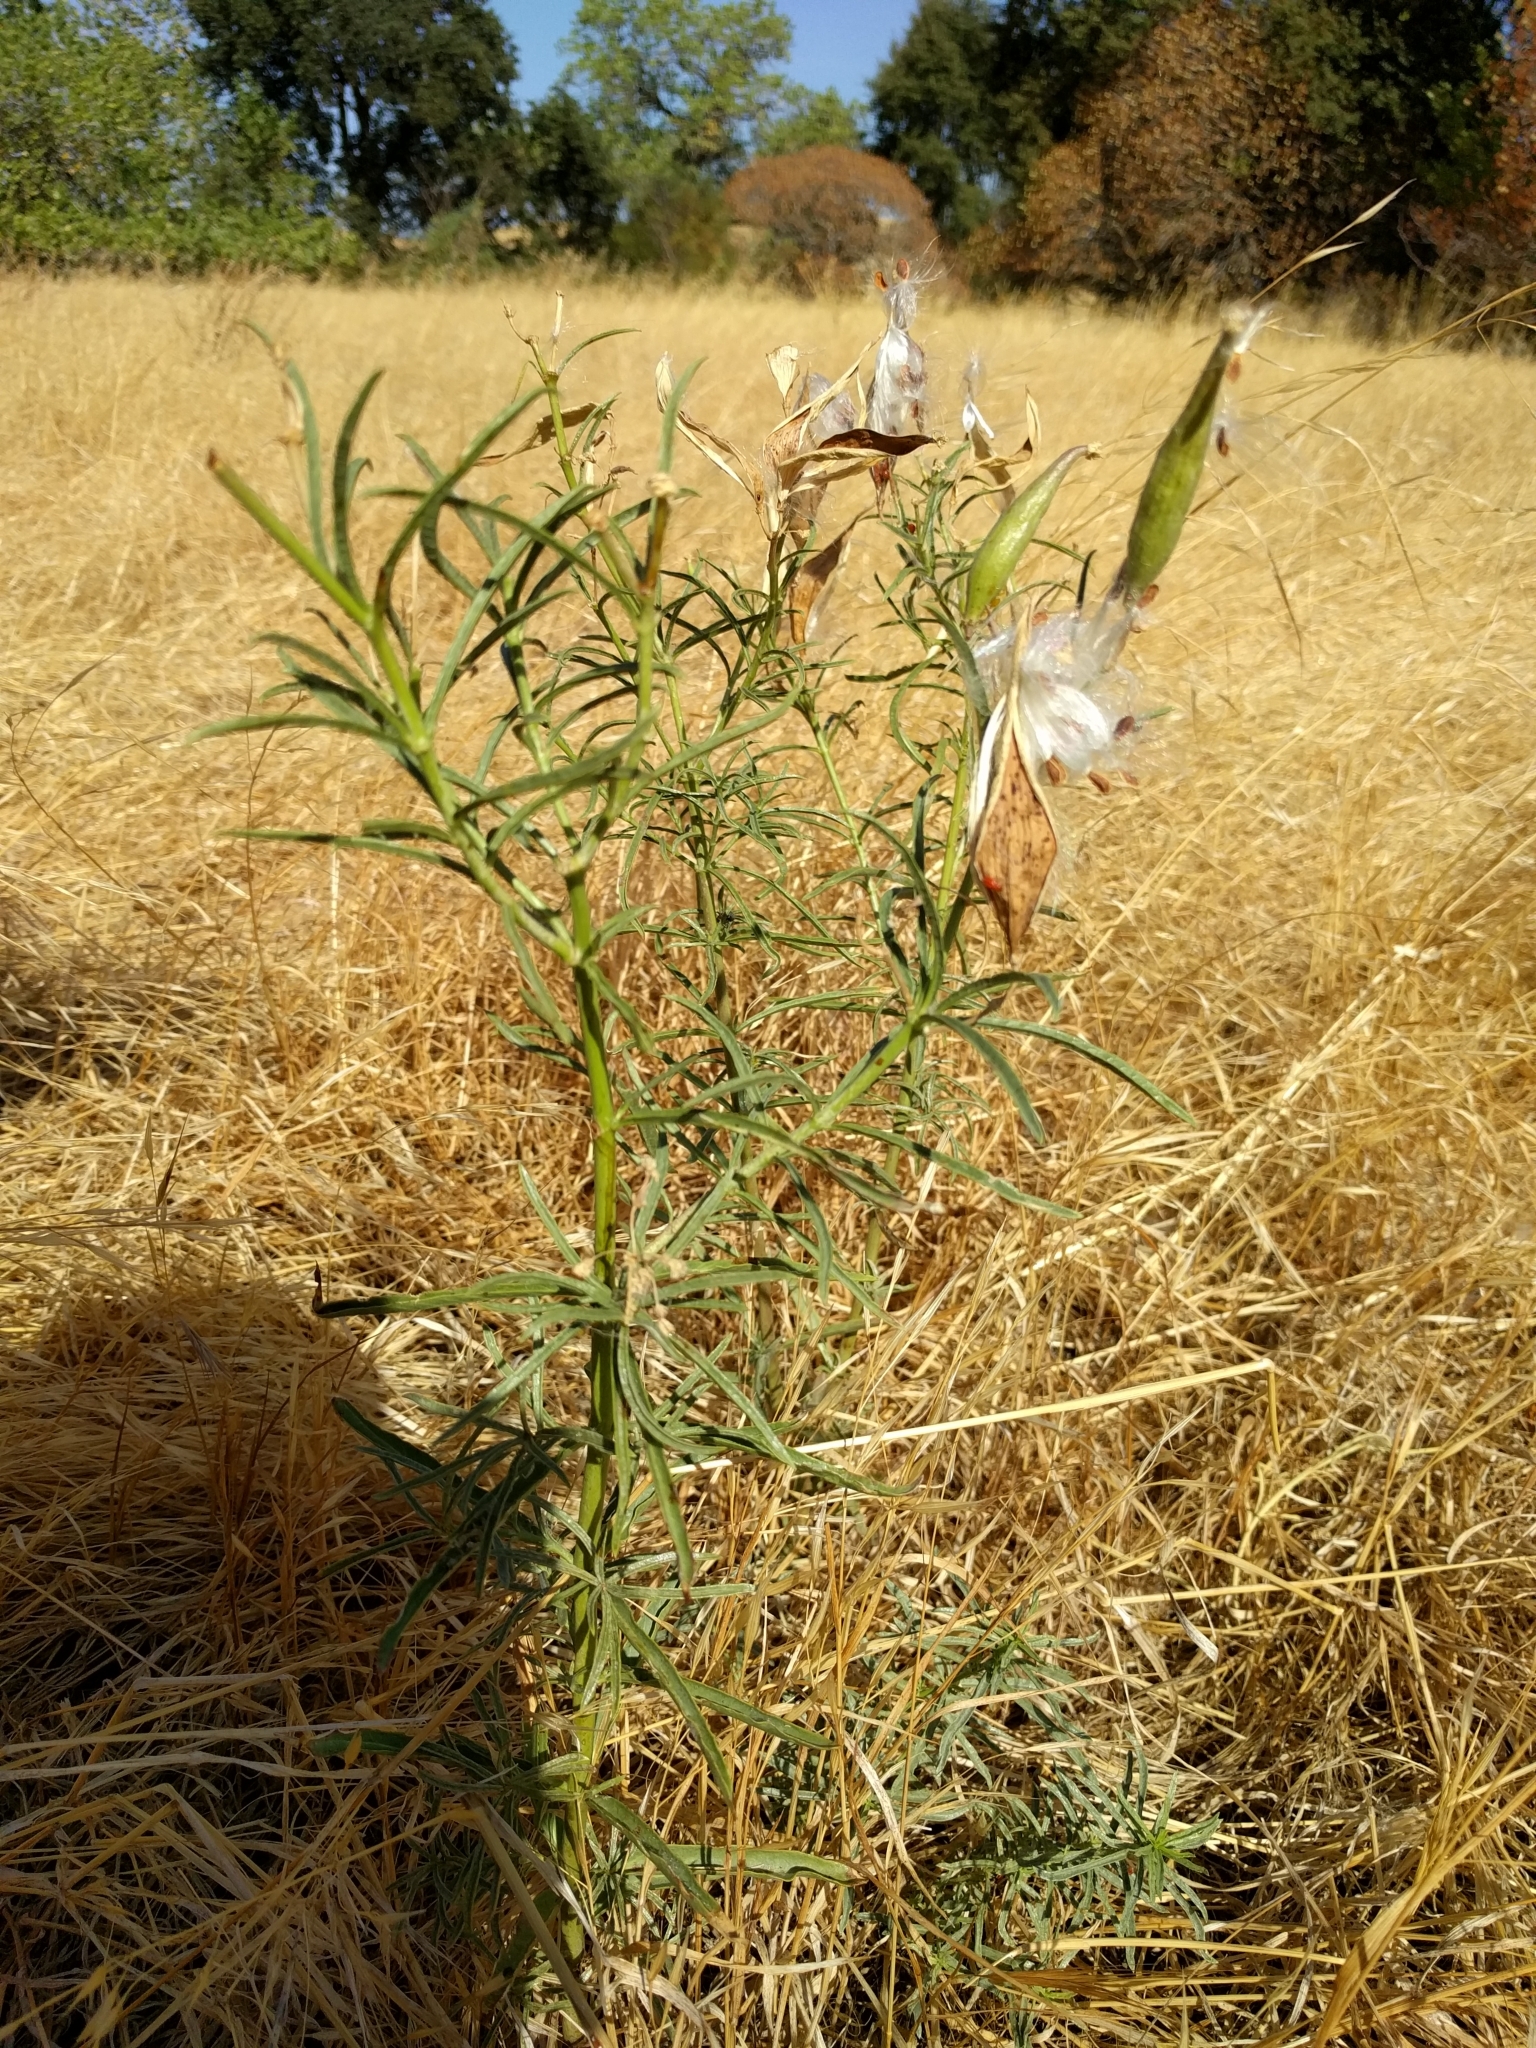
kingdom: Plantae
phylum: Tracheophyta
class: Magnoliopsida
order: Gentianales
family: Apocynaceae
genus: Asclepias
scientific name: Asclepias fascicularis
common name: Mexican milkweed
